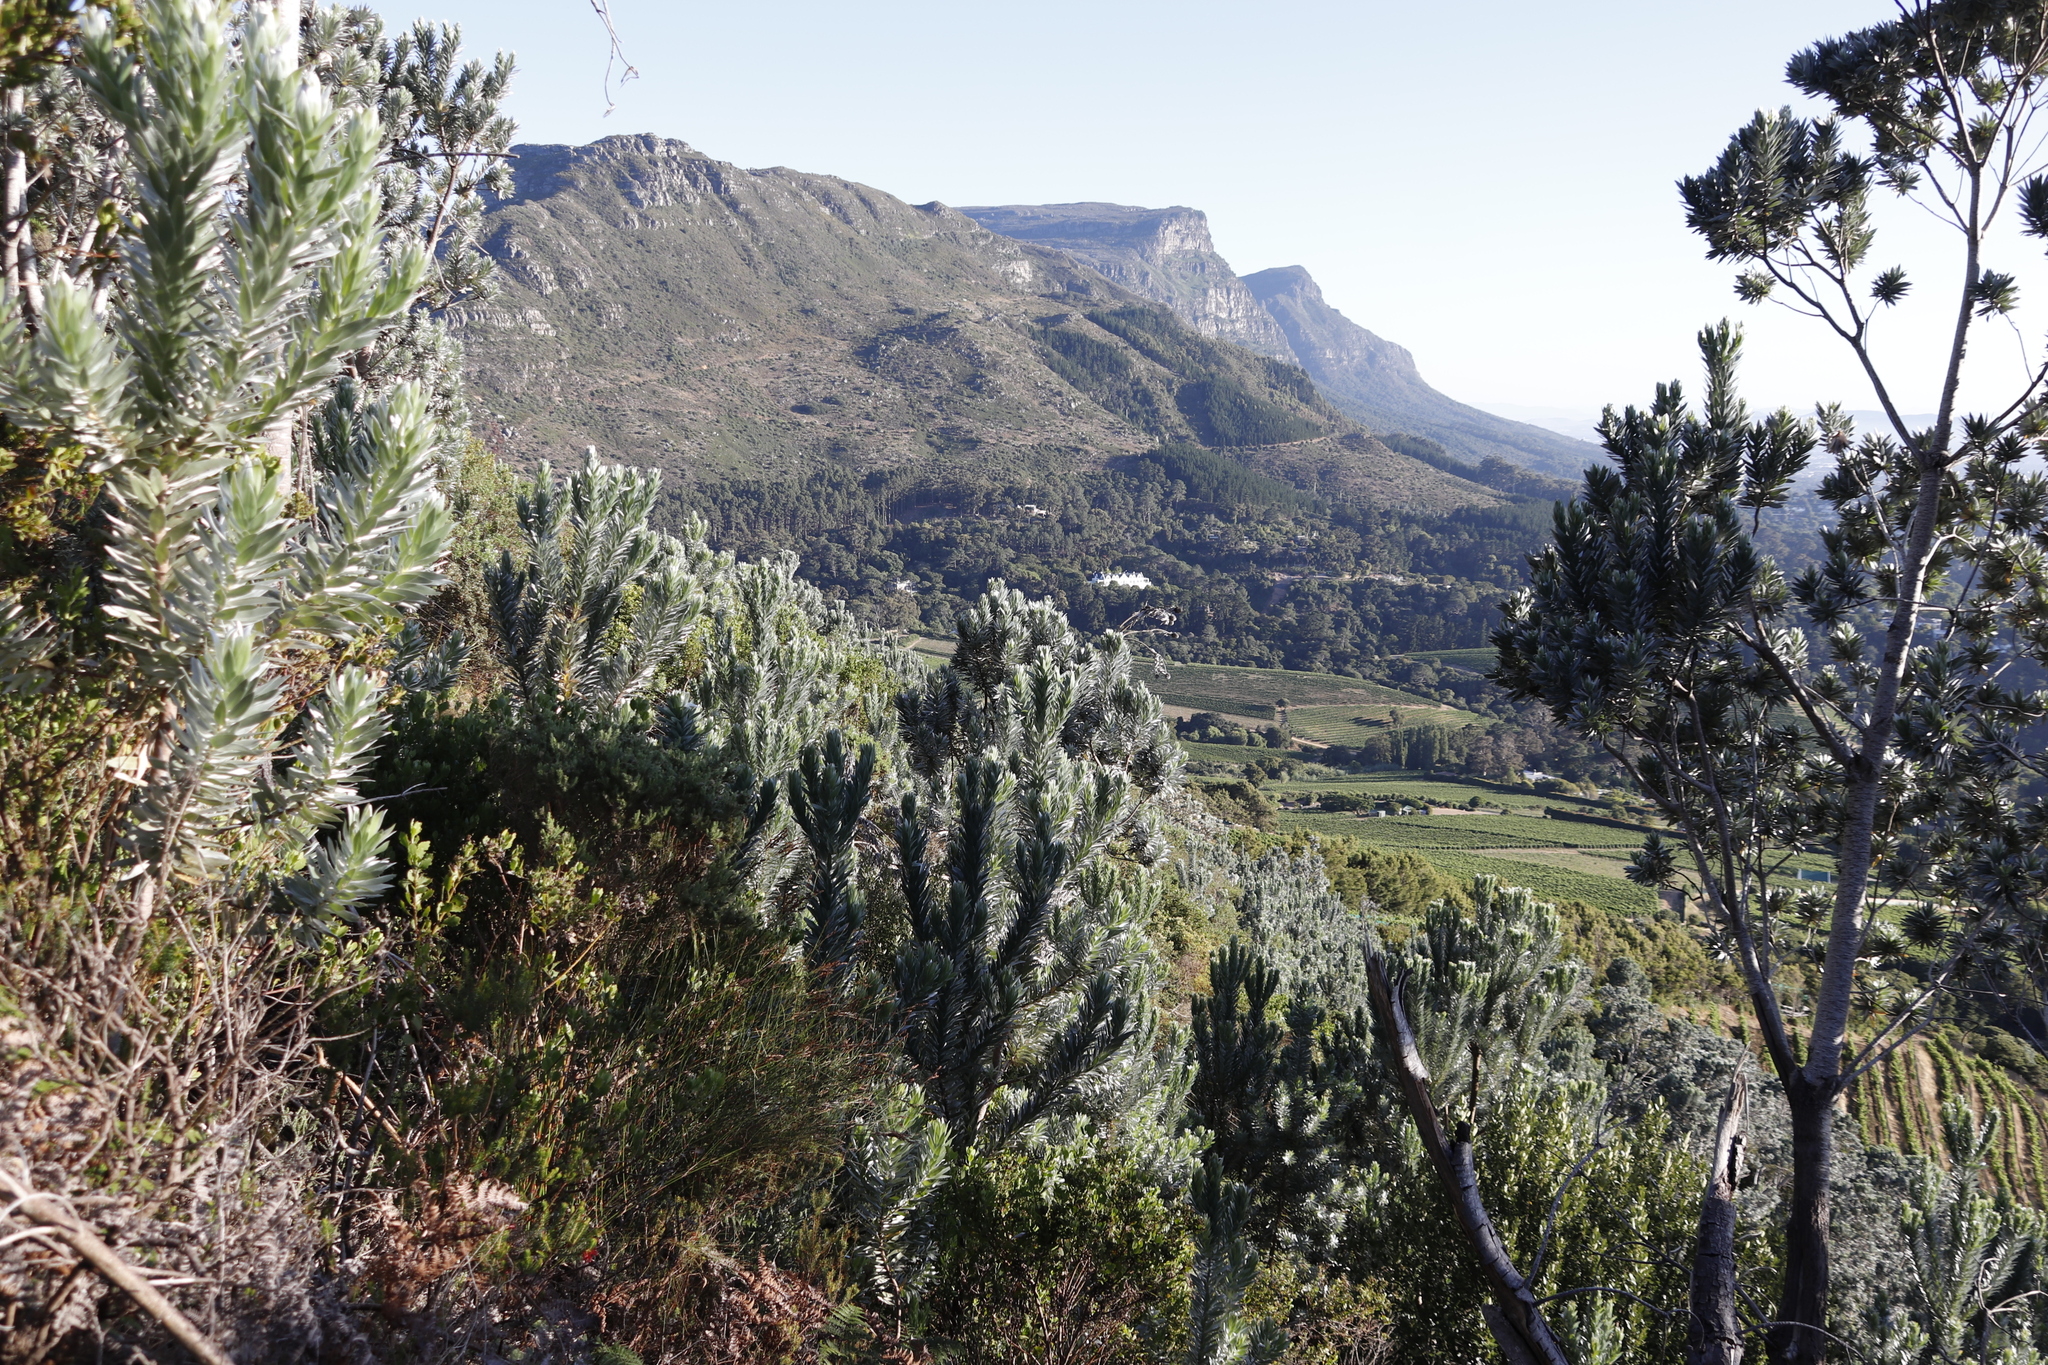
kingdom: Plantae
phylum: Tracheophyta
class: Magnoliopsida
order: Proteales
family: Proteaceae
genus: Leucadendron
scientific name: Leucadendron argenteum
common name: Cape silver tree
